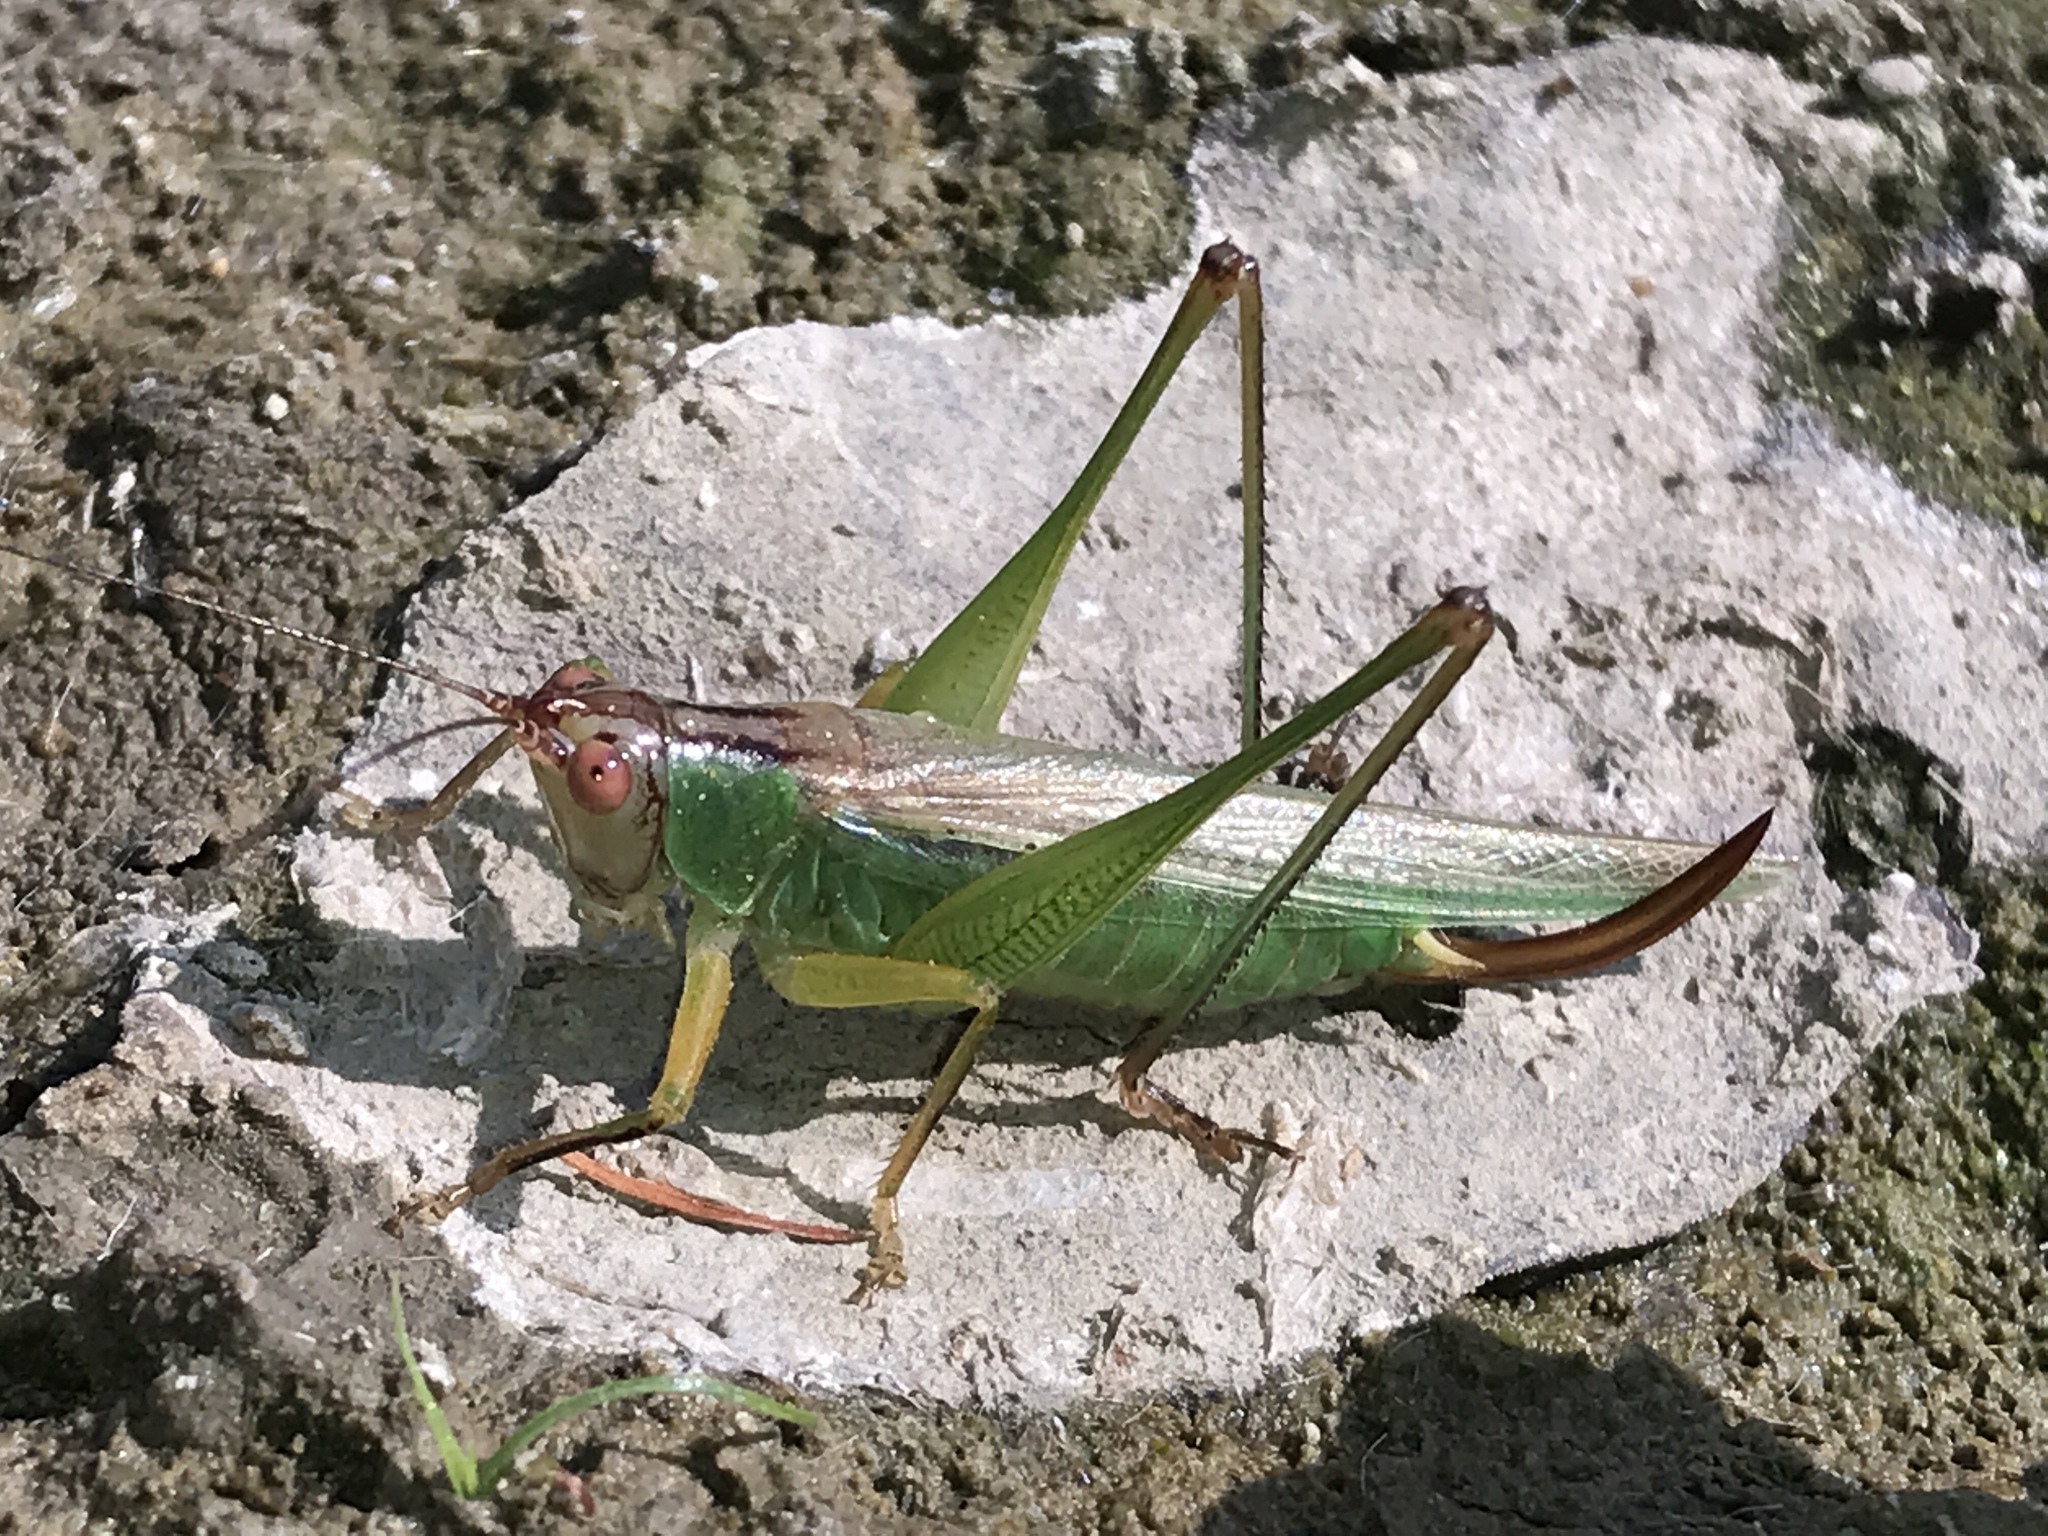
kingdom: Animalia
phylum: Arthropoda
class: Insecta
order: Orthoptera
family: Tettigoniidae
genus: Orchelimum
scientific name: Orchelimum nigripes
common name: Black-legged meadow katydid
